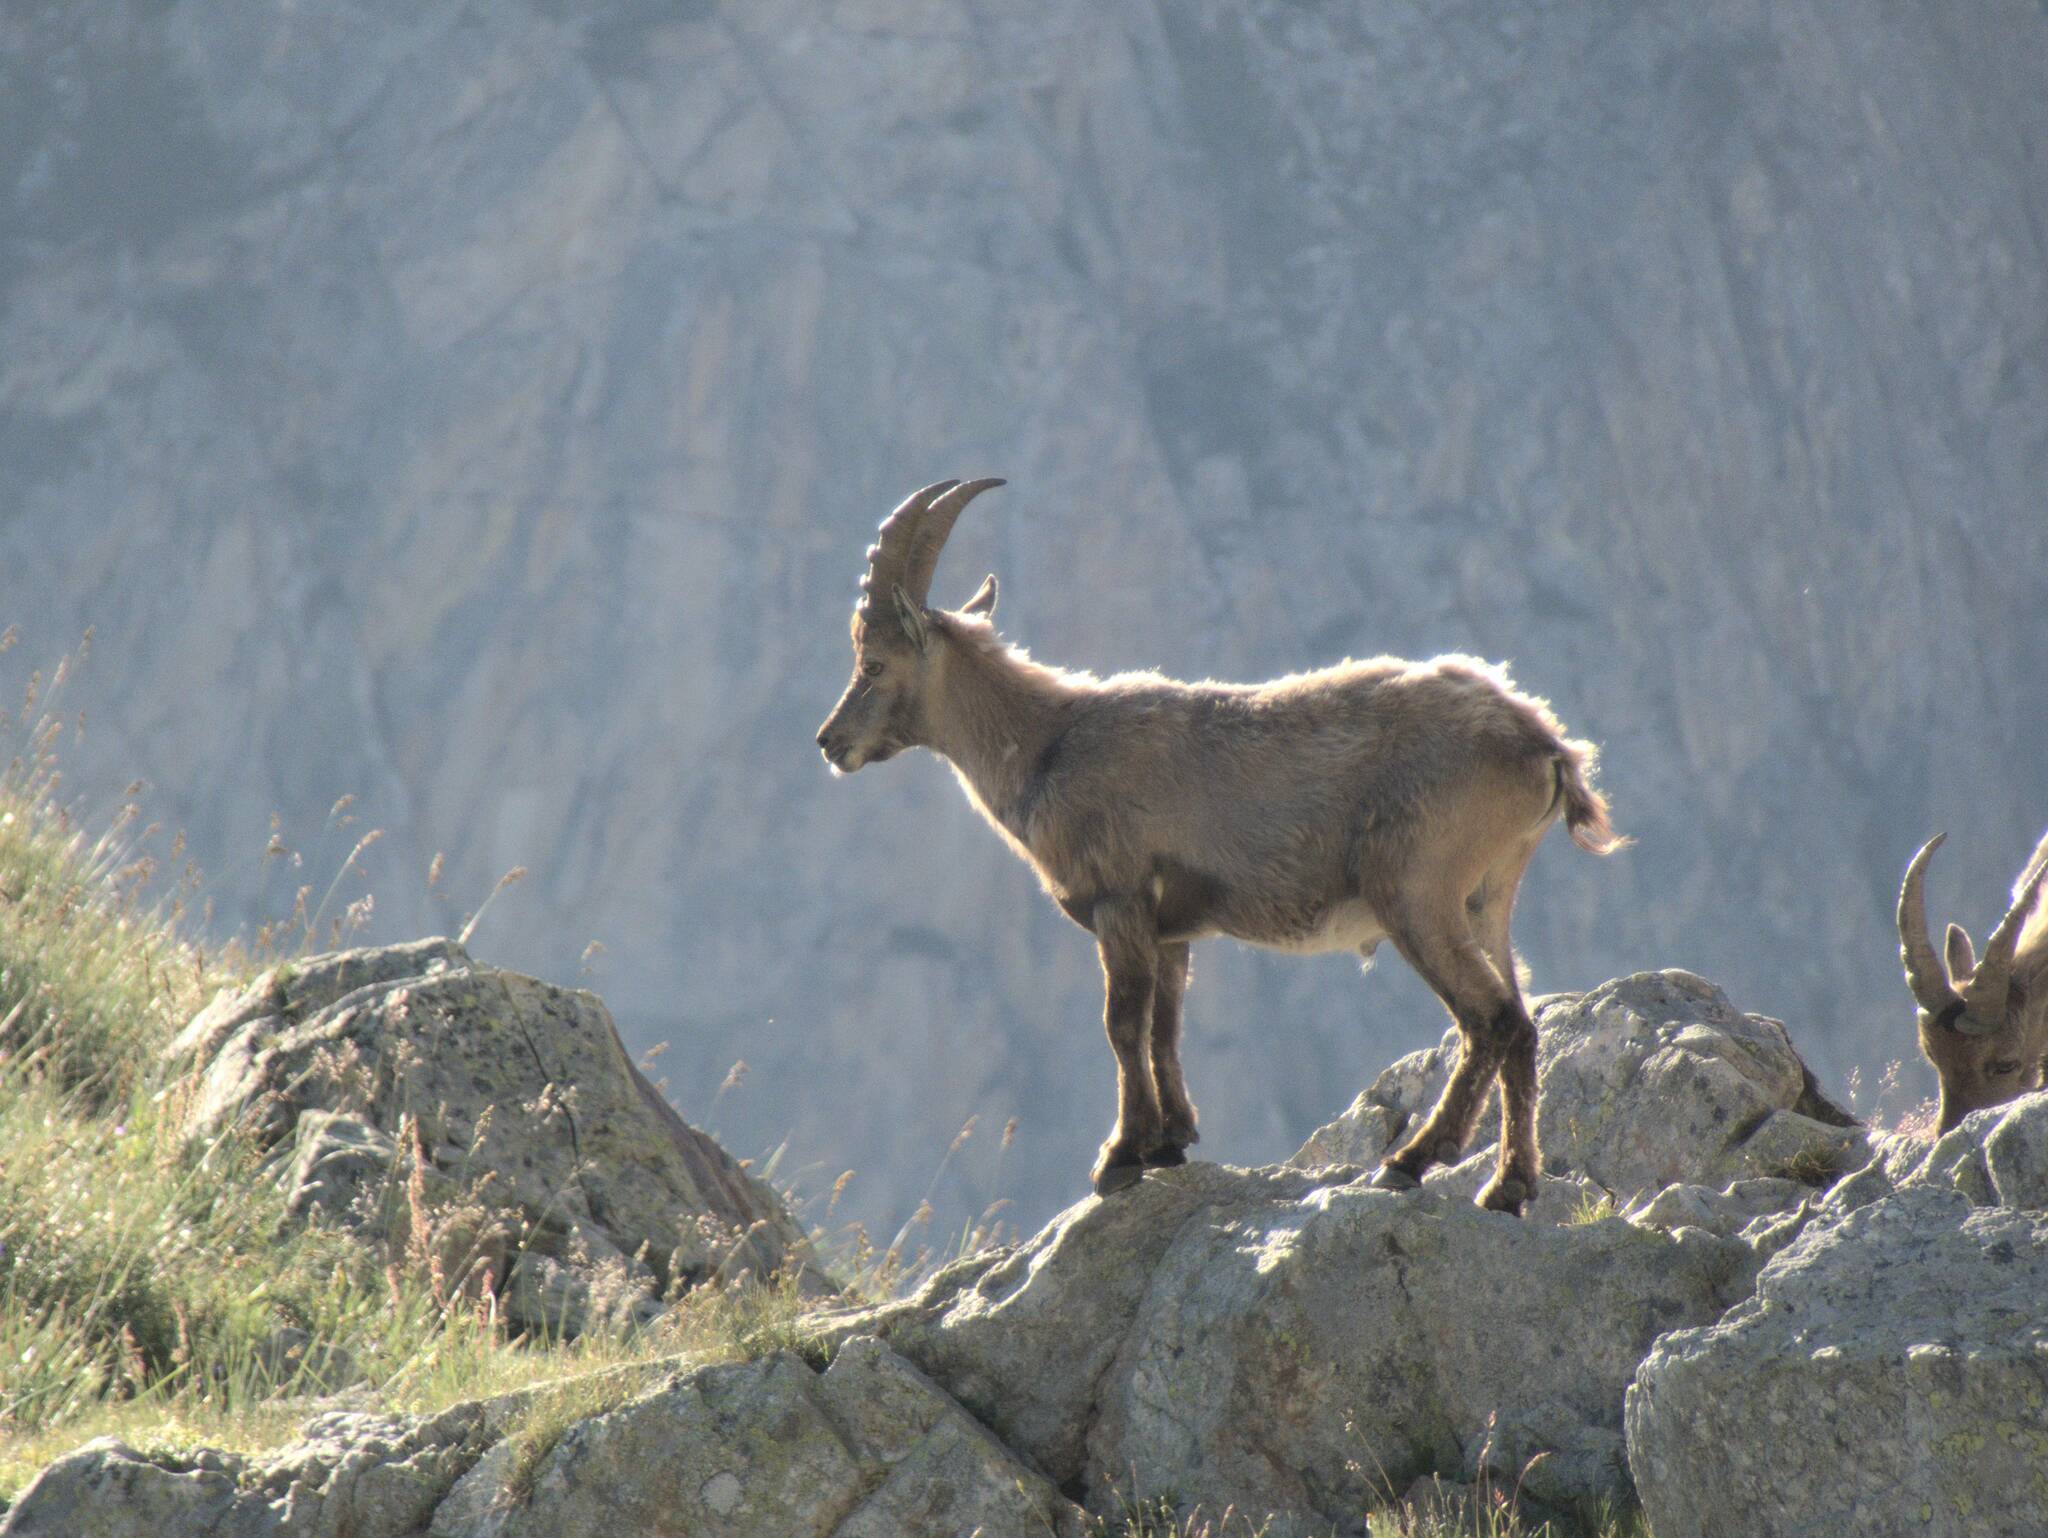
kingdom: Animalia
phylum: Chordata
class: Mammalia
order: Artiodactyla
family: Bovidae
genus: Capra
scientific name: Capra ibex
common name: Alpine ibex
